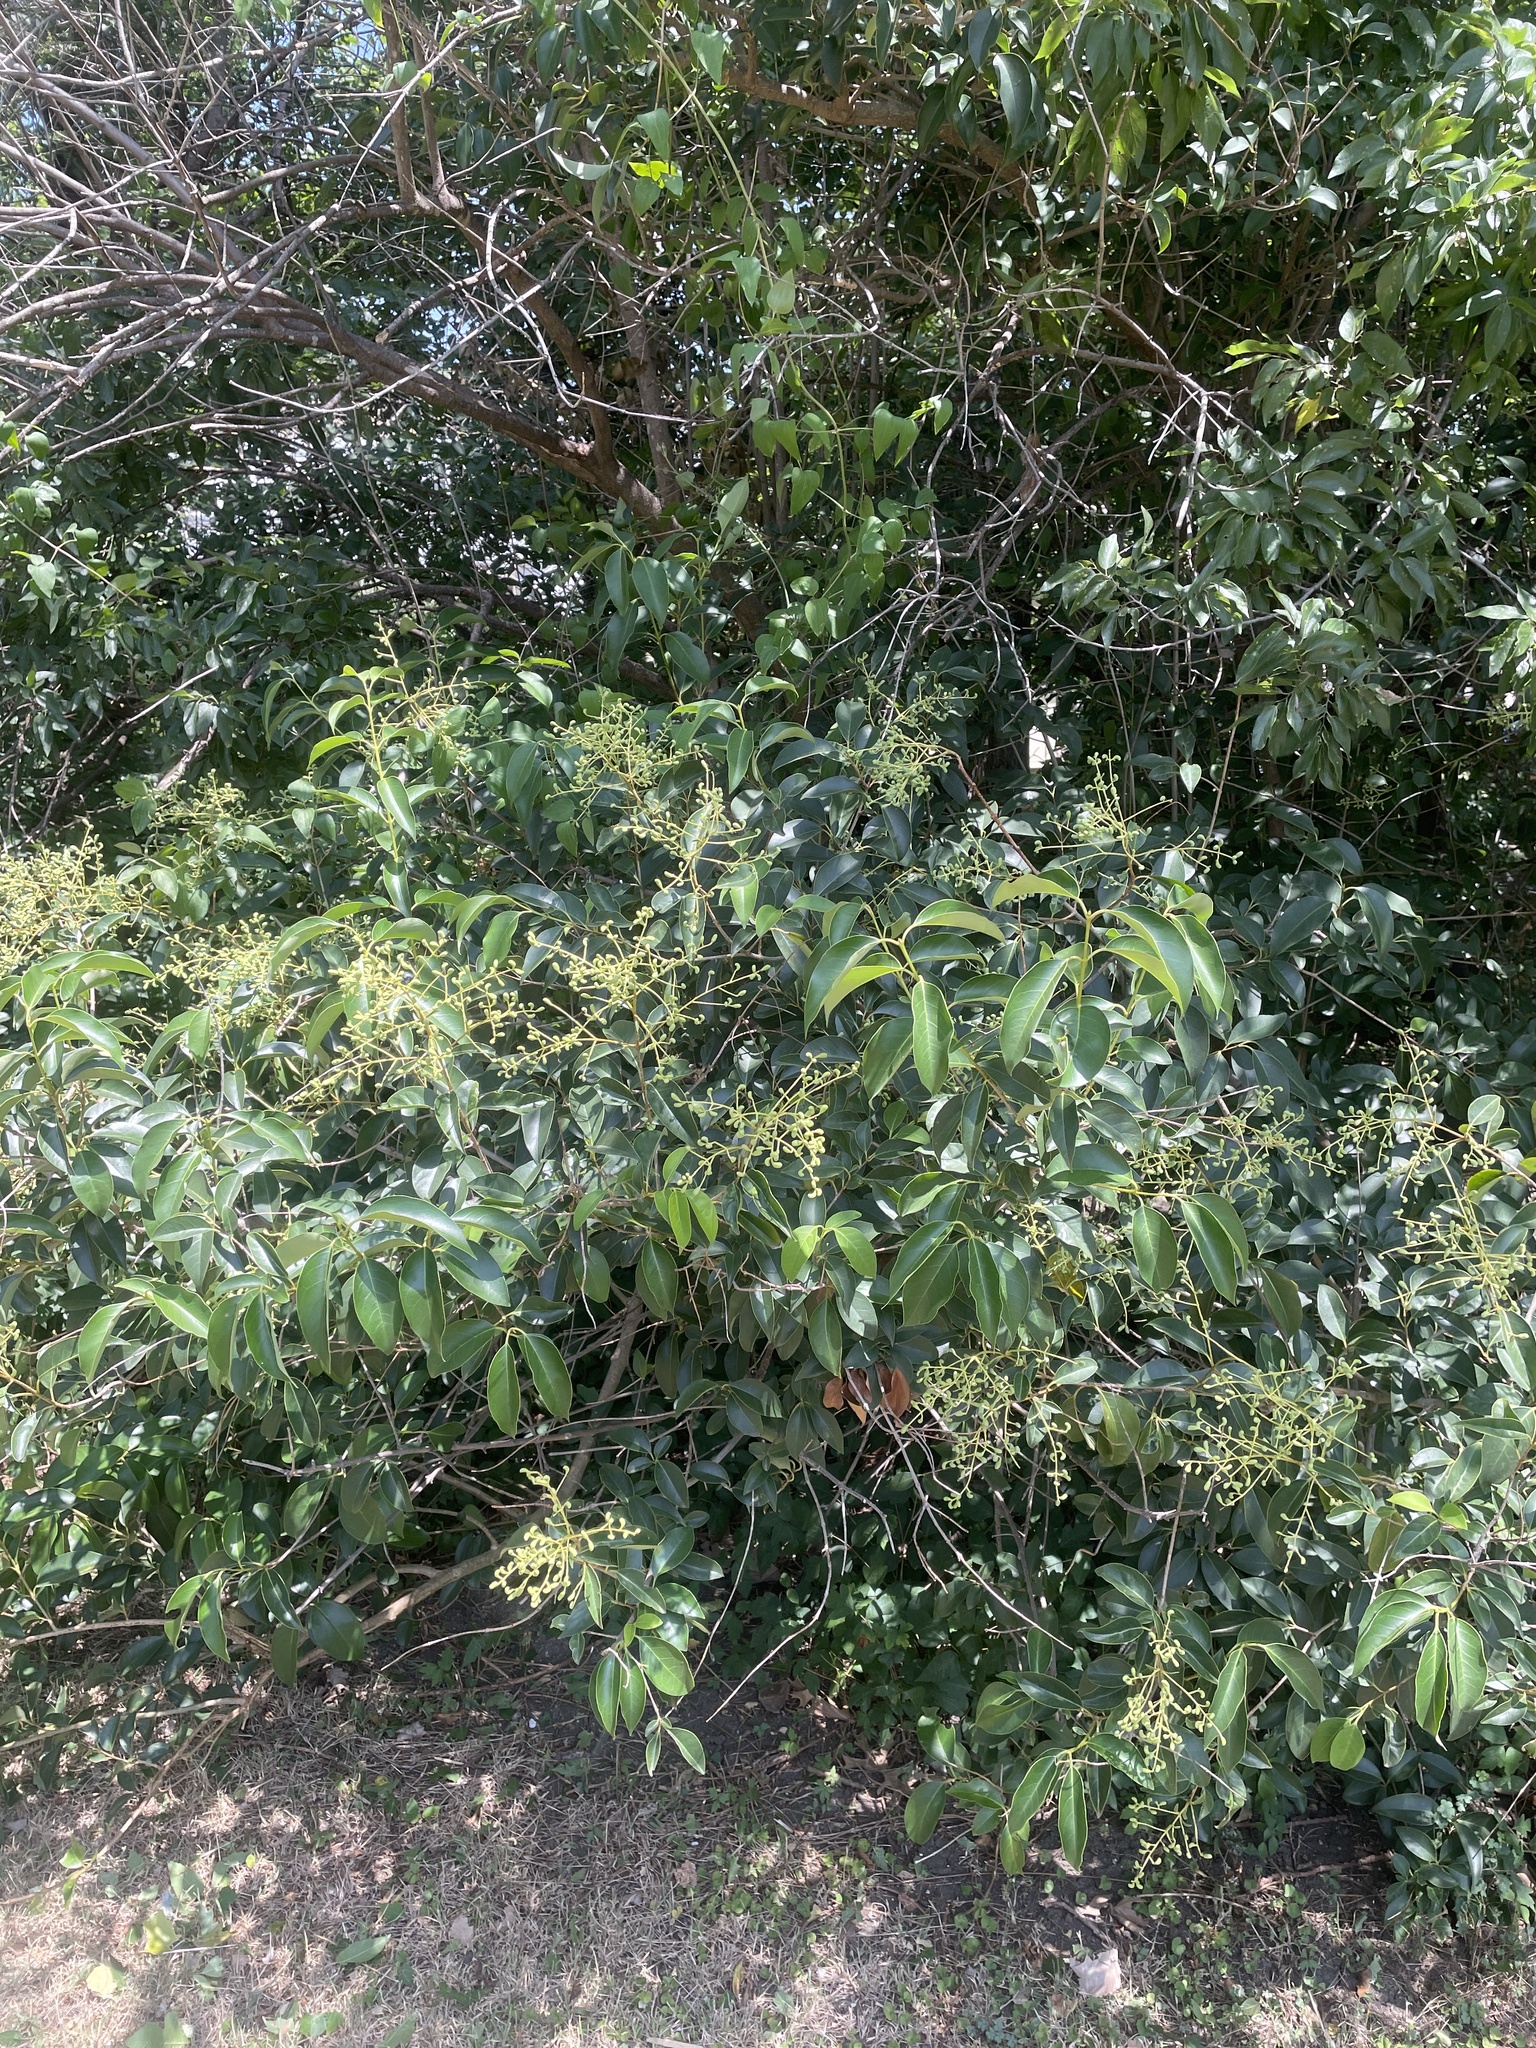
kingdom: Plantae
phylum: Tracheophyta
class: Magnoliopsida
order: Lamiales
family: Oleaceae
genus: Ligustrum
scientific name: Ligustrum lucidum
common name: Glossy privet
